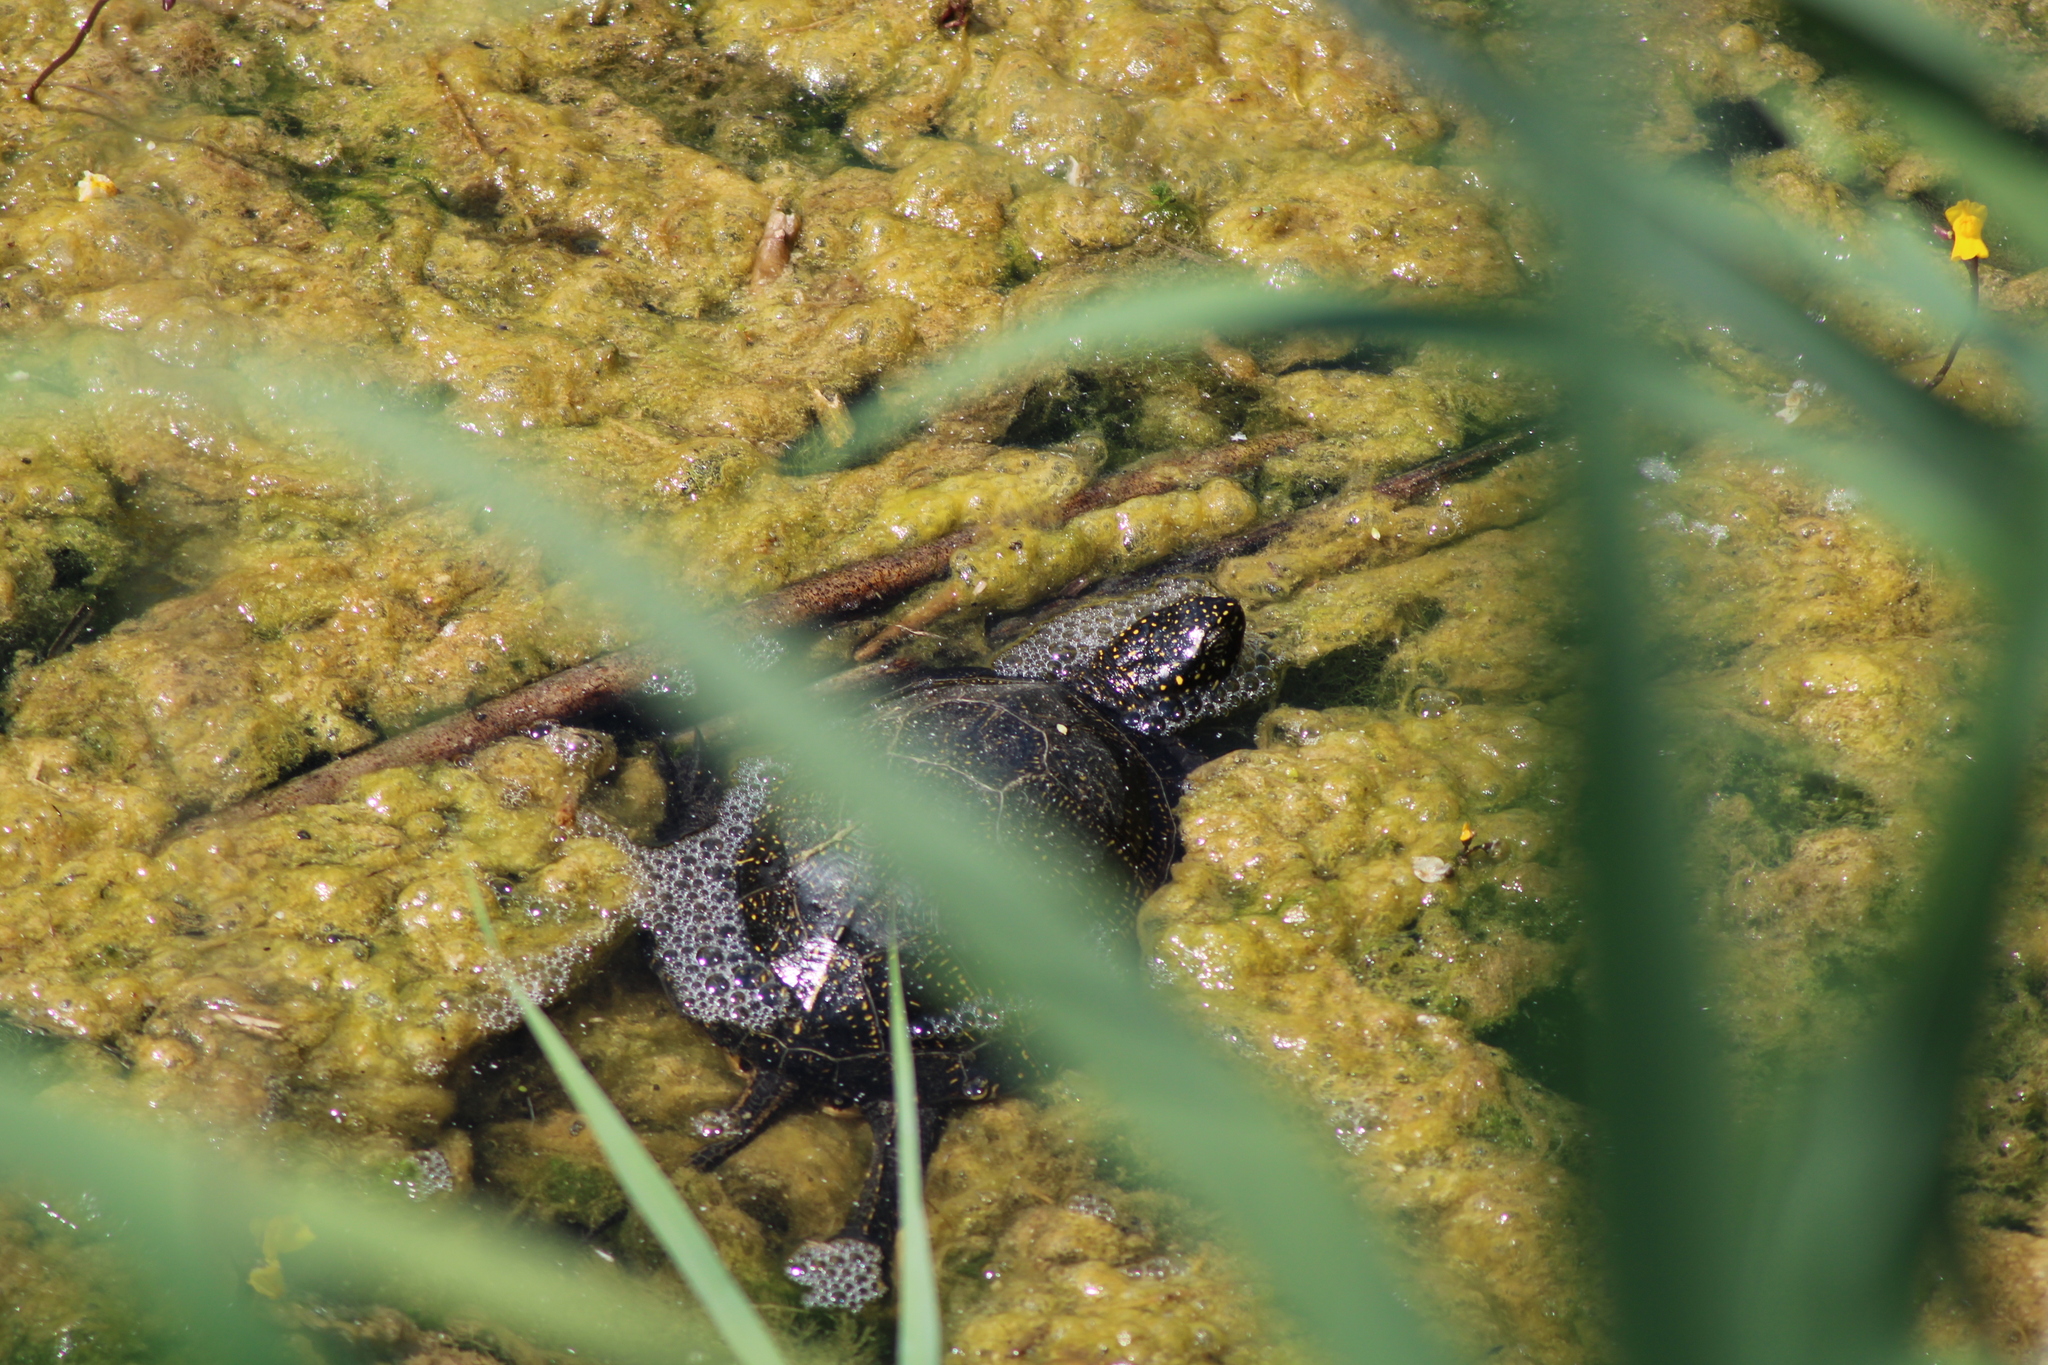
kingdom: Animalia
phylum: Chordata
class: Testudines
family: Emydidae
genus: Emys
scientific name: Emys orbicularis
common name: European pond turtle
